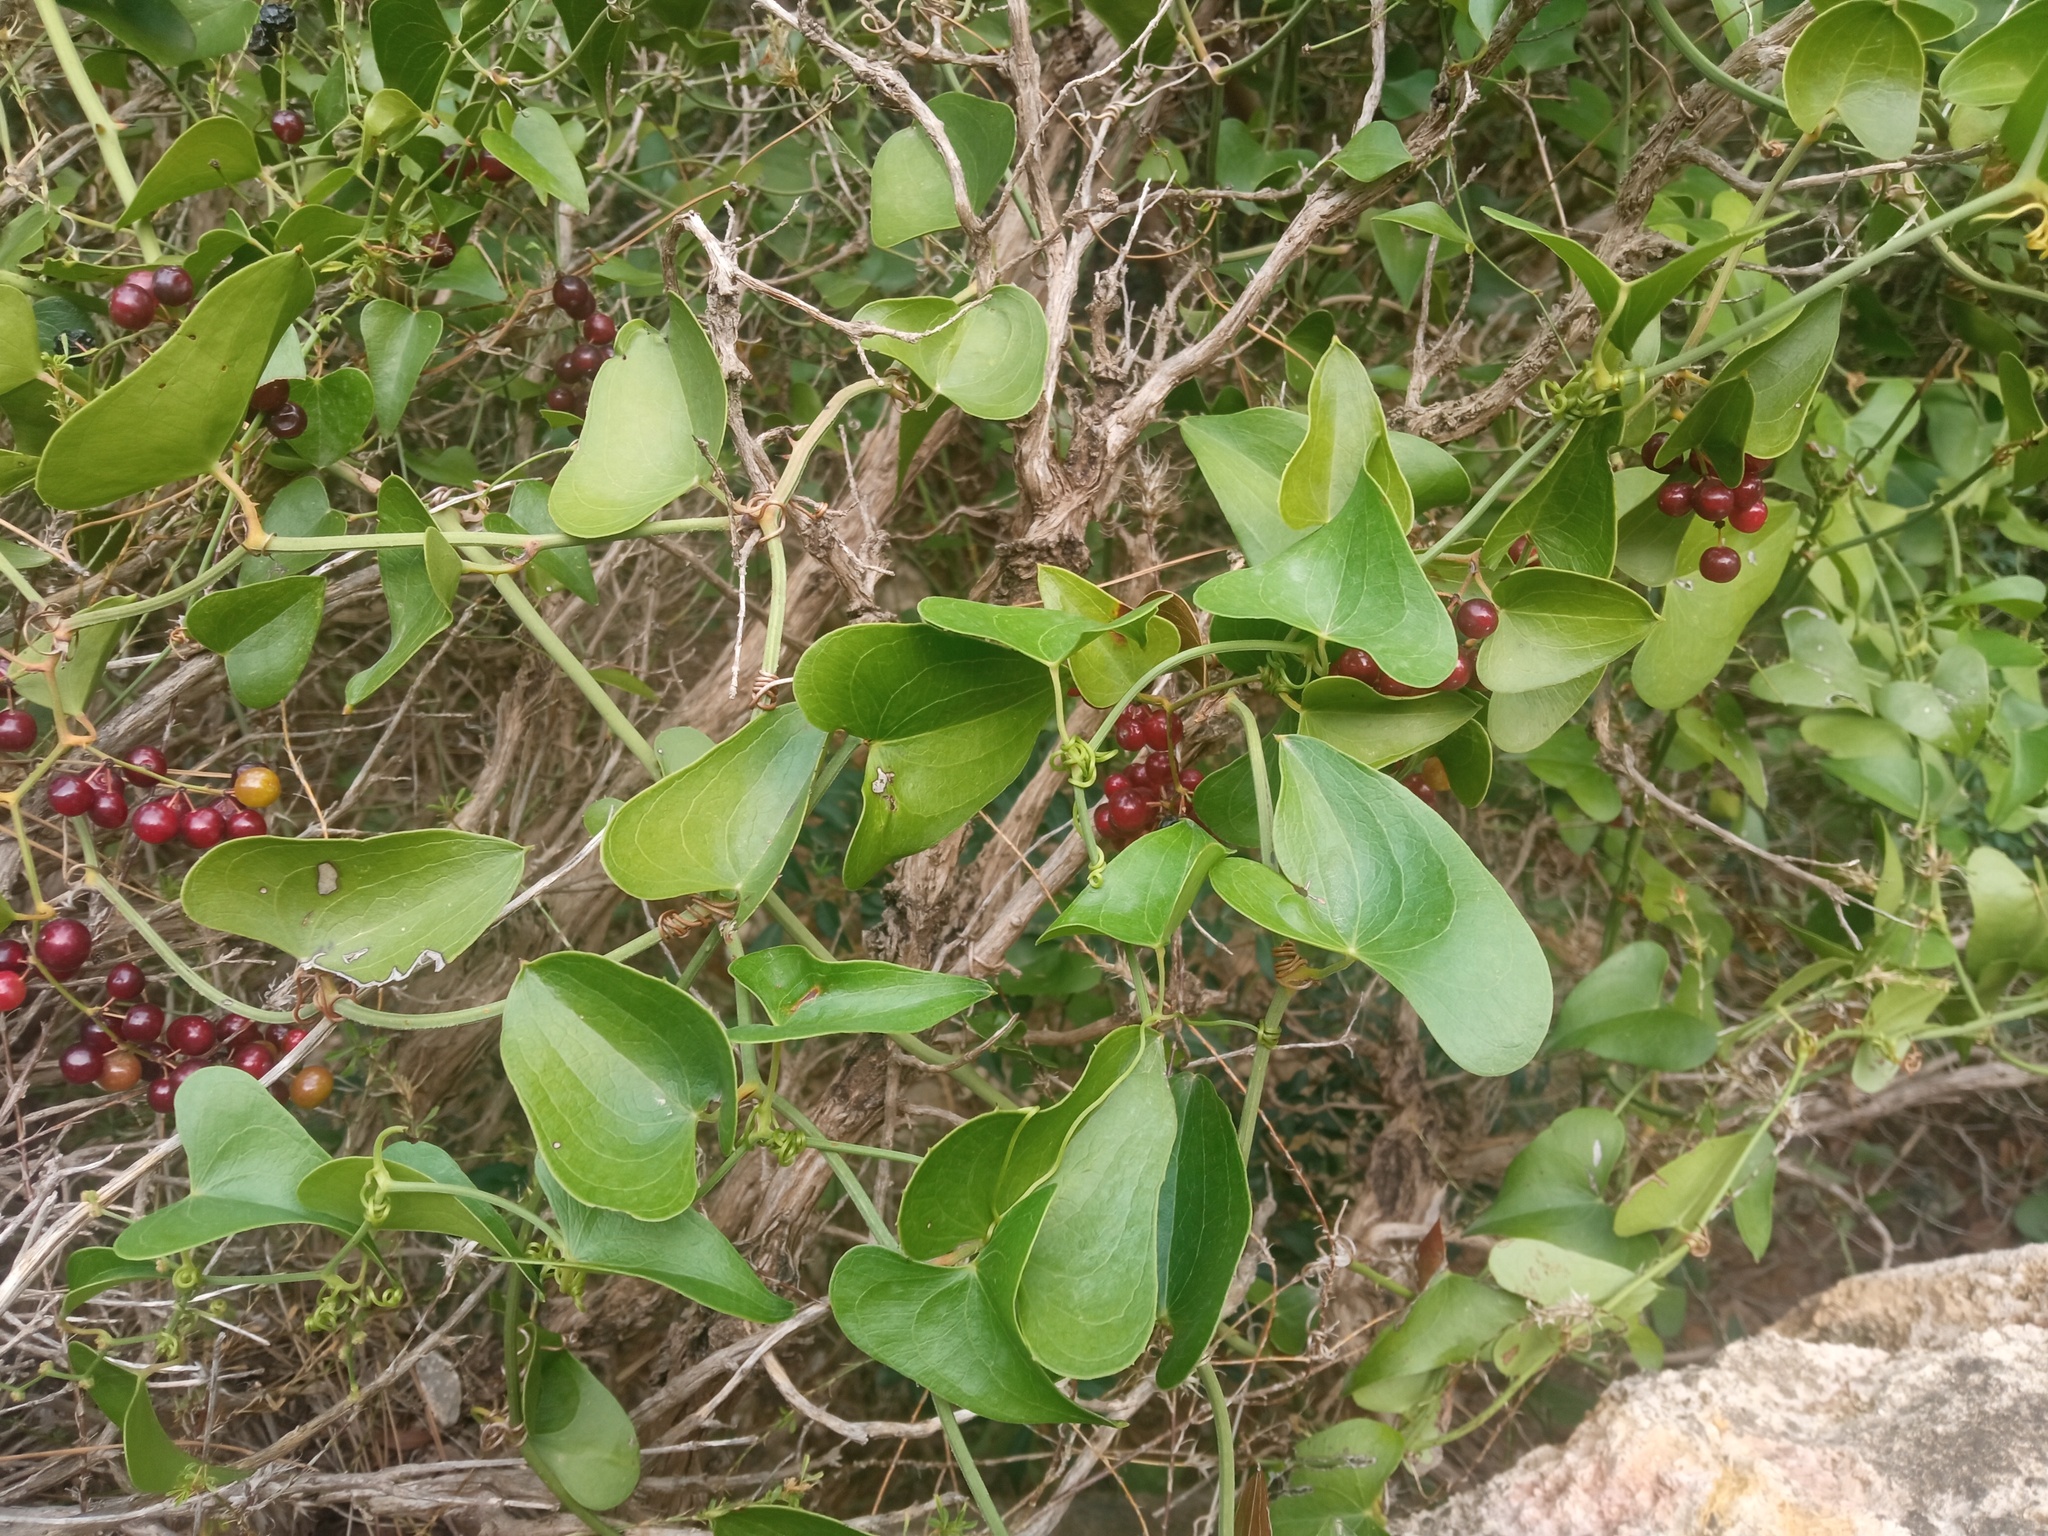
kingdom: Plantae
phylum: Tracheophyta
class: Liliopsida
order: Liliales
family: Smilacaceae
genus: Smilax
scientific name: Smilax aspera
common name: Common smilax
